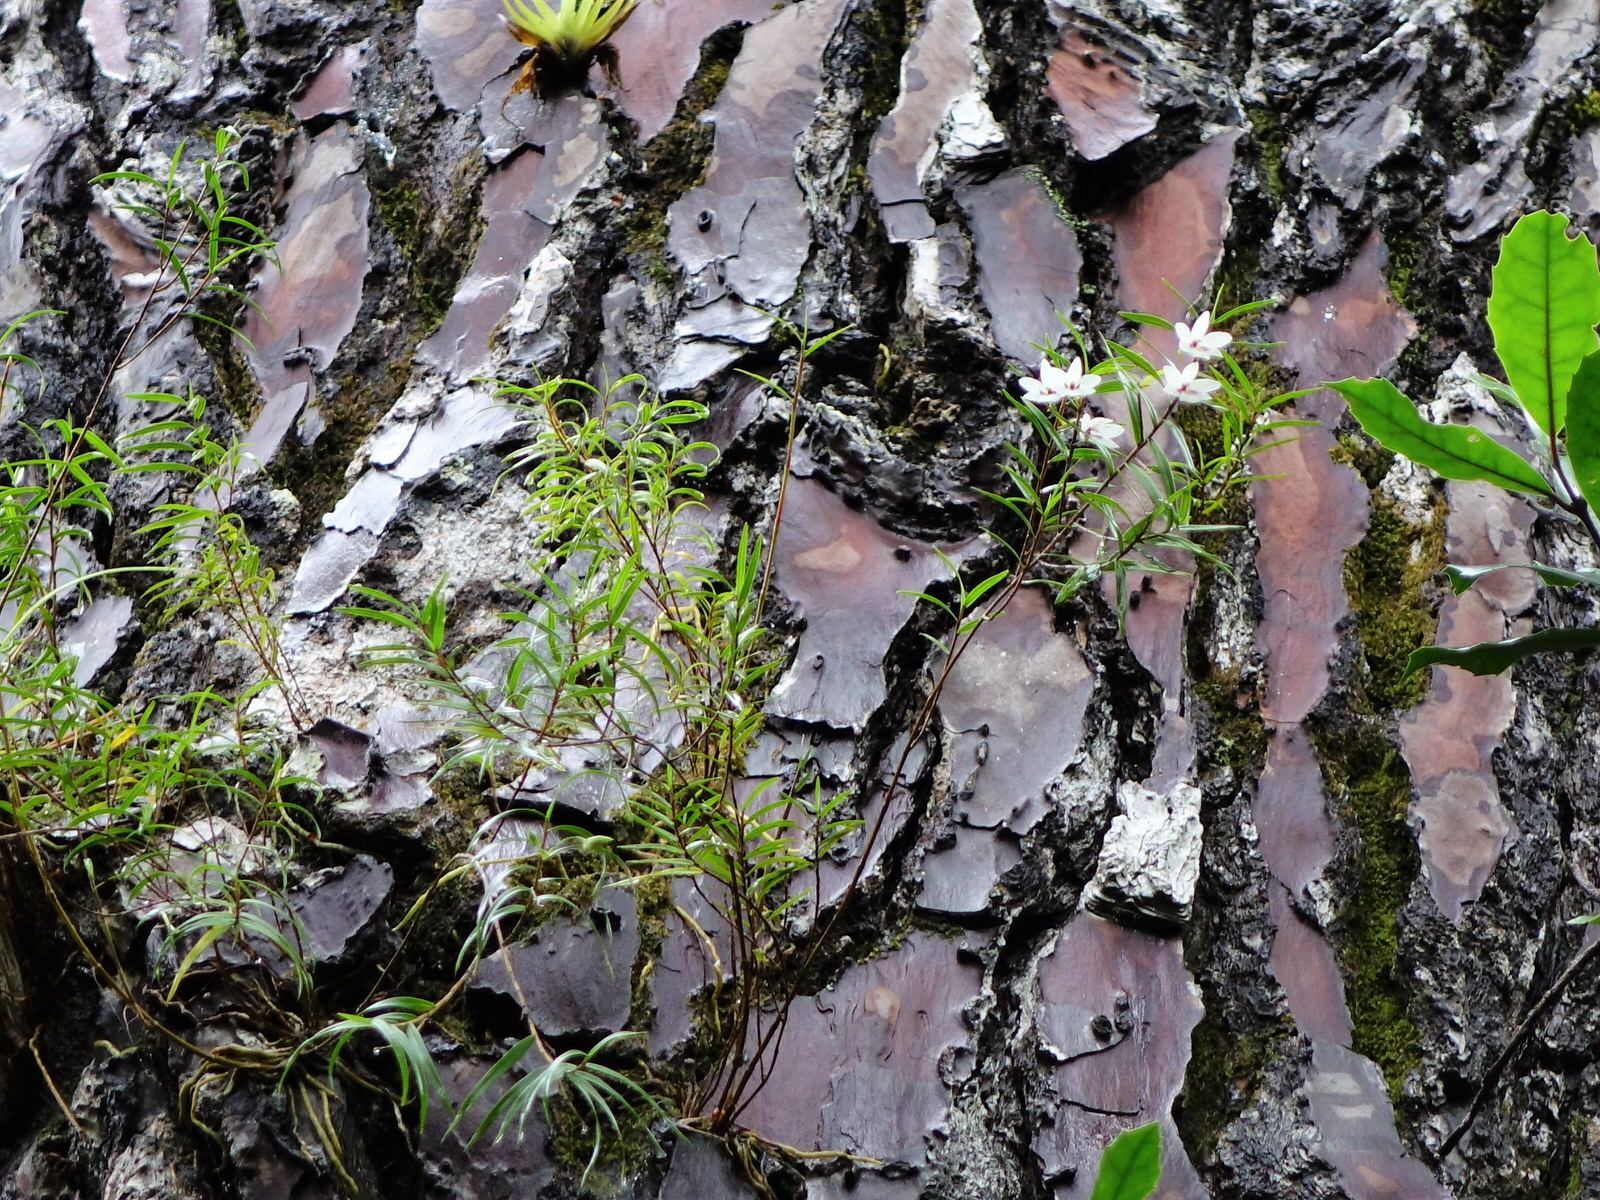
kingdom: Plantae
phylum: Tracheophyta
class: Liliopsida
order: Asparagales
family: Orchidaceae
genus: Dendrobium
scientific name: Dendrobium cunninghamii
